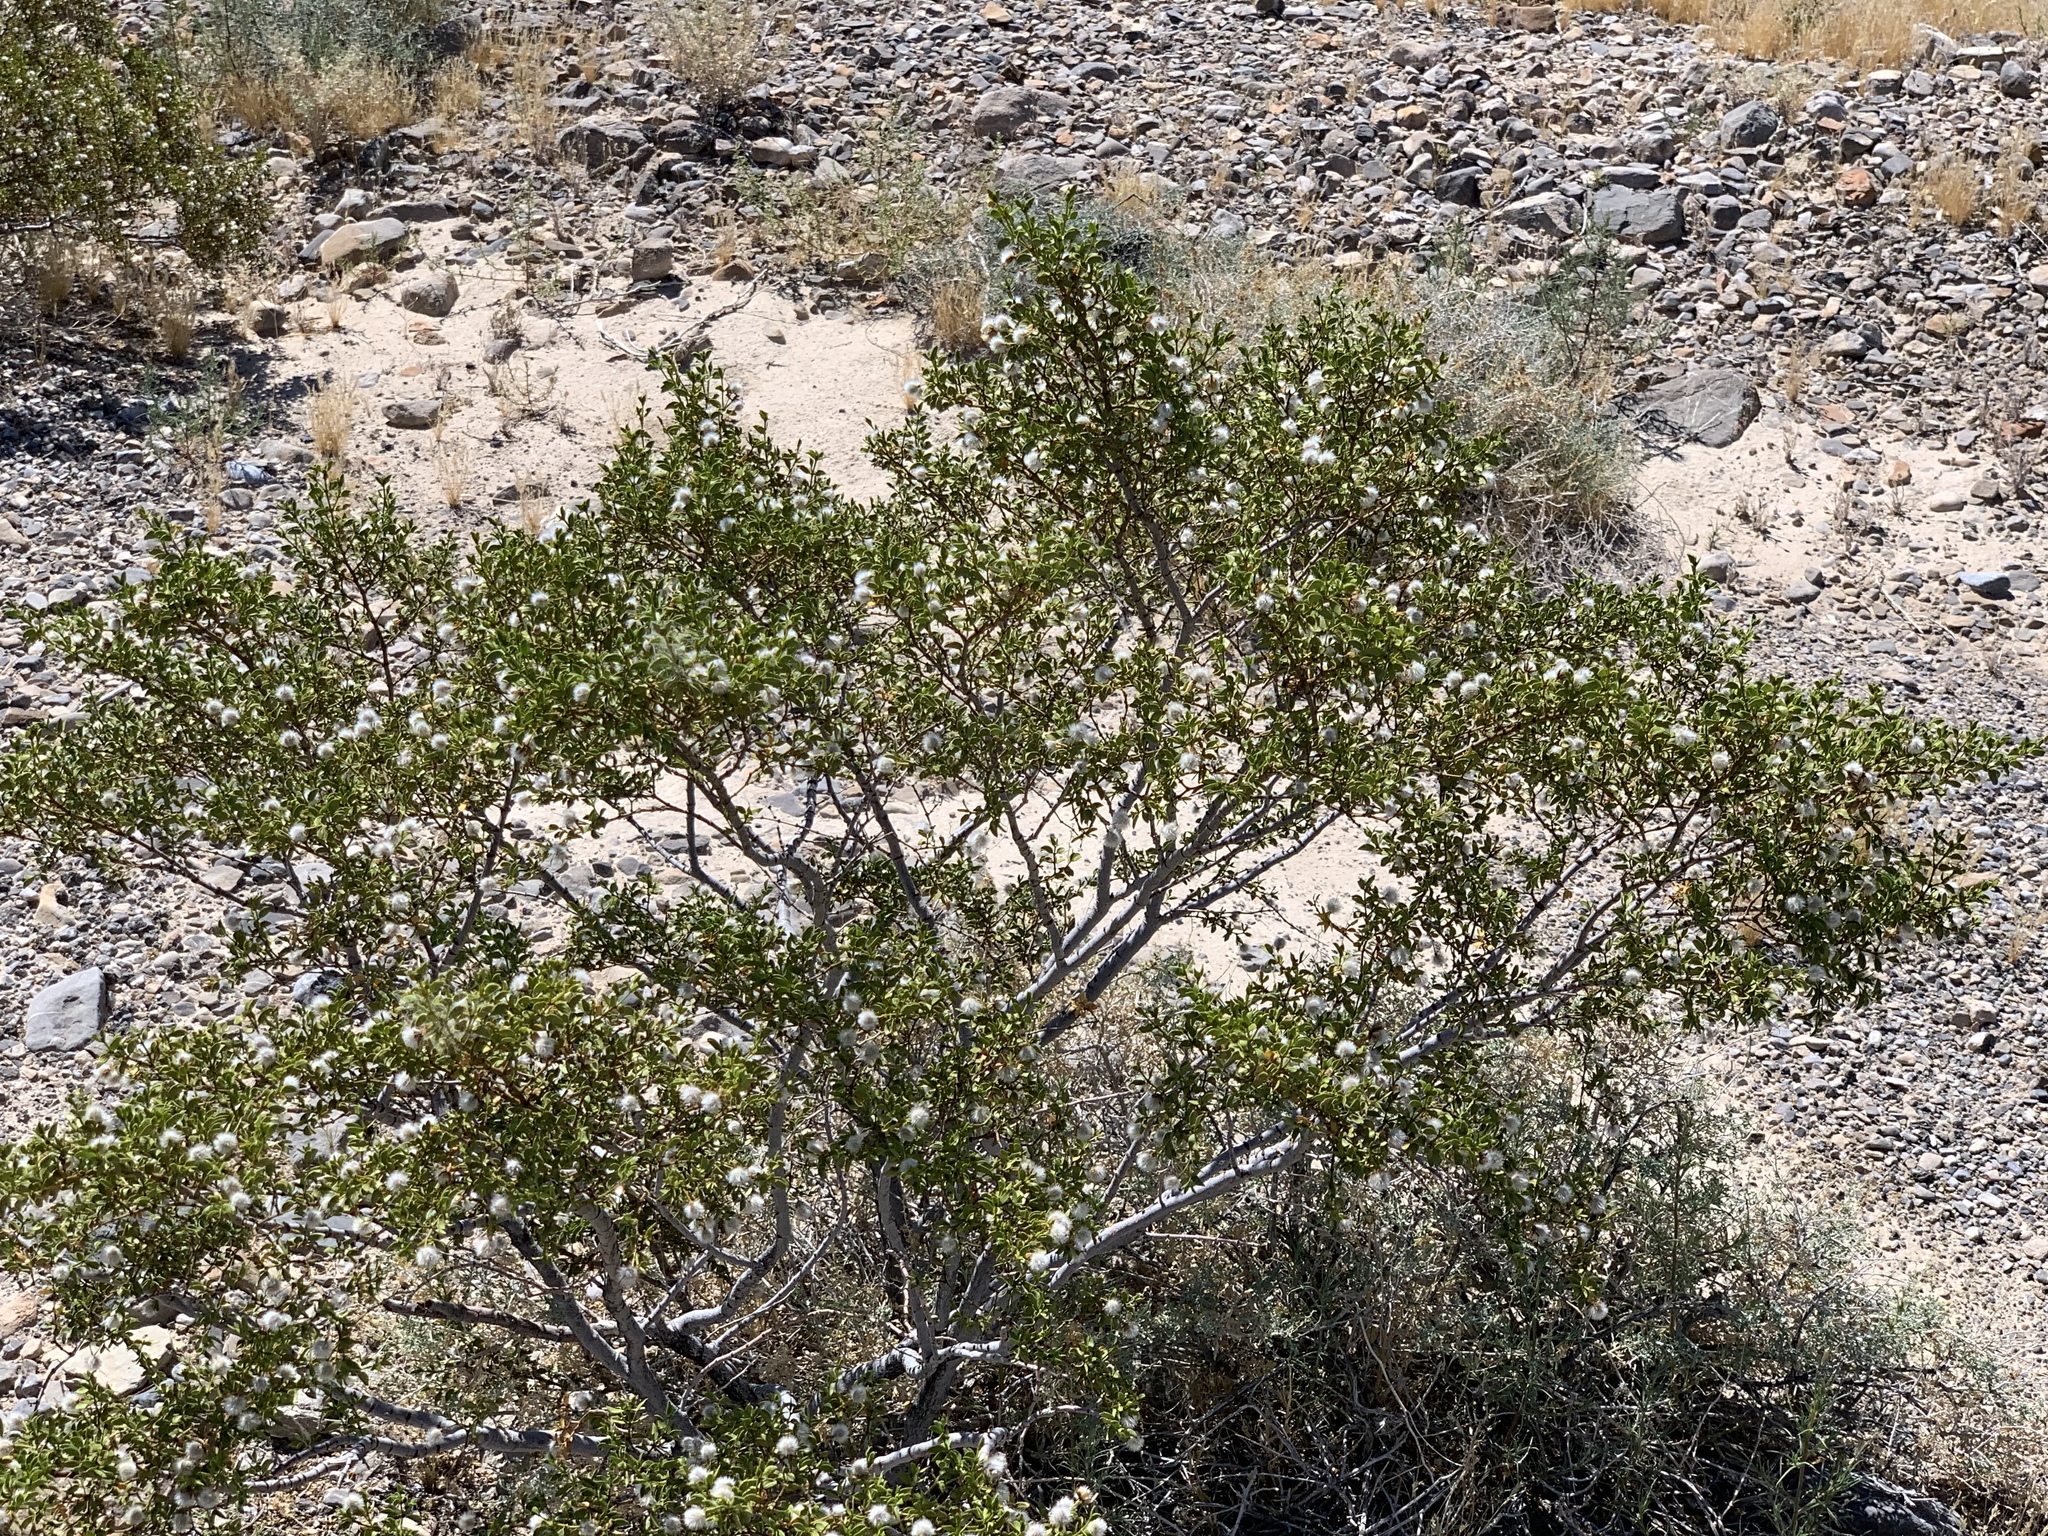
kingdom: Plantae
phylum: Tracheophyta
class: Magnoliopsida
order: Zygophyllales
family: Zygophyllaceae
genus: Larrea
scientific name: Larrea tridentata
